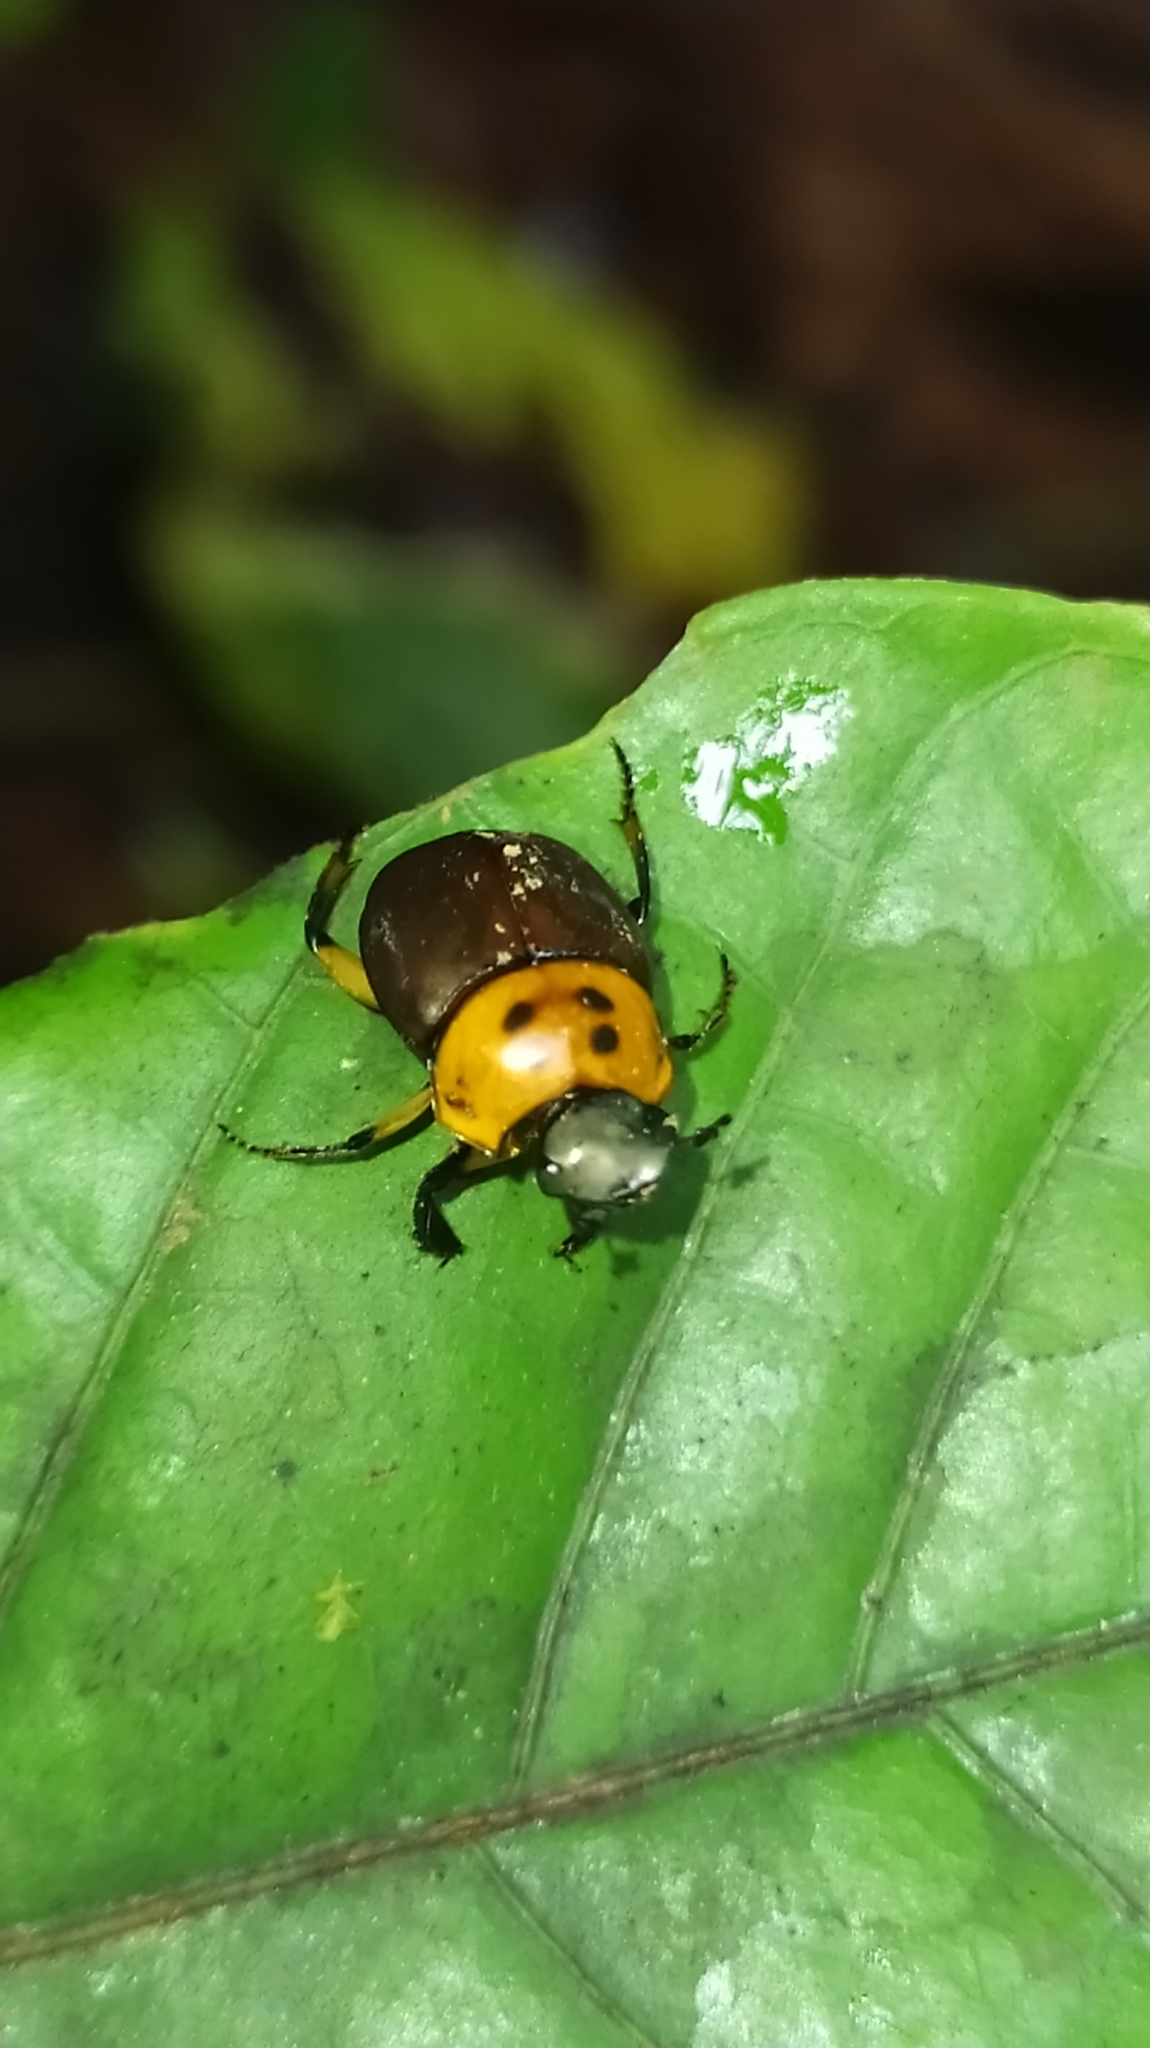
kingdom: Animalia
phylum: Arthropoda
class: Insecta
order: Coleoptera
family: Scarabaeidae
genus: Canthon
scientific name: Canthon triangularis
